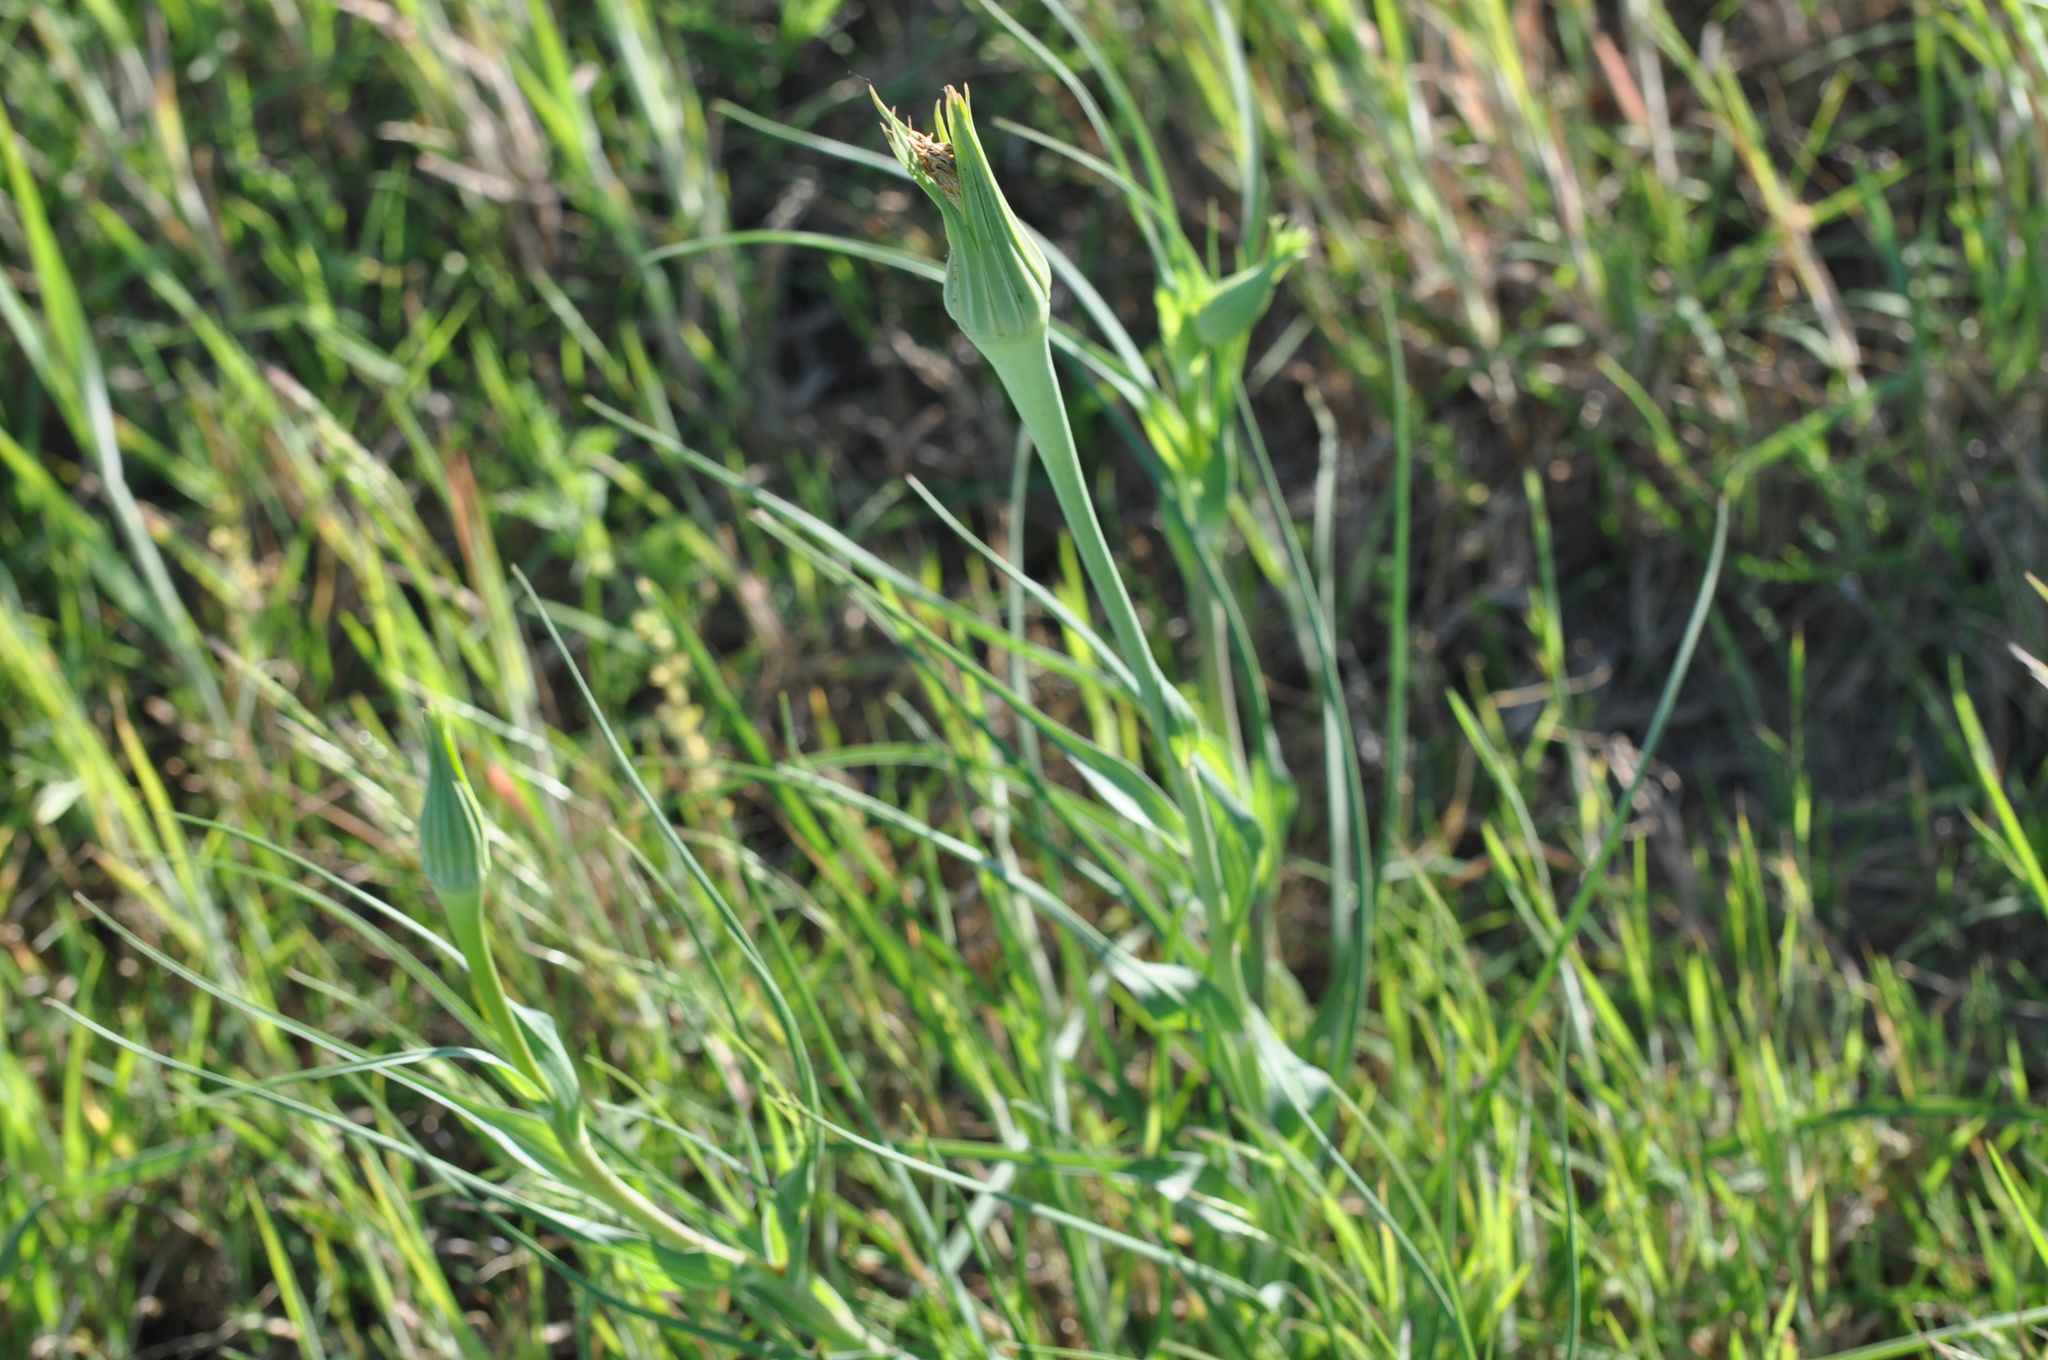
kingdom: Plantae
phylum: Tracheophyta
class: Magnoliopsida
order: Asterales
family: Asteraceae
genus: Tragopogon
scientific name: Tragopogon dubius
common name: Yellow salsify
